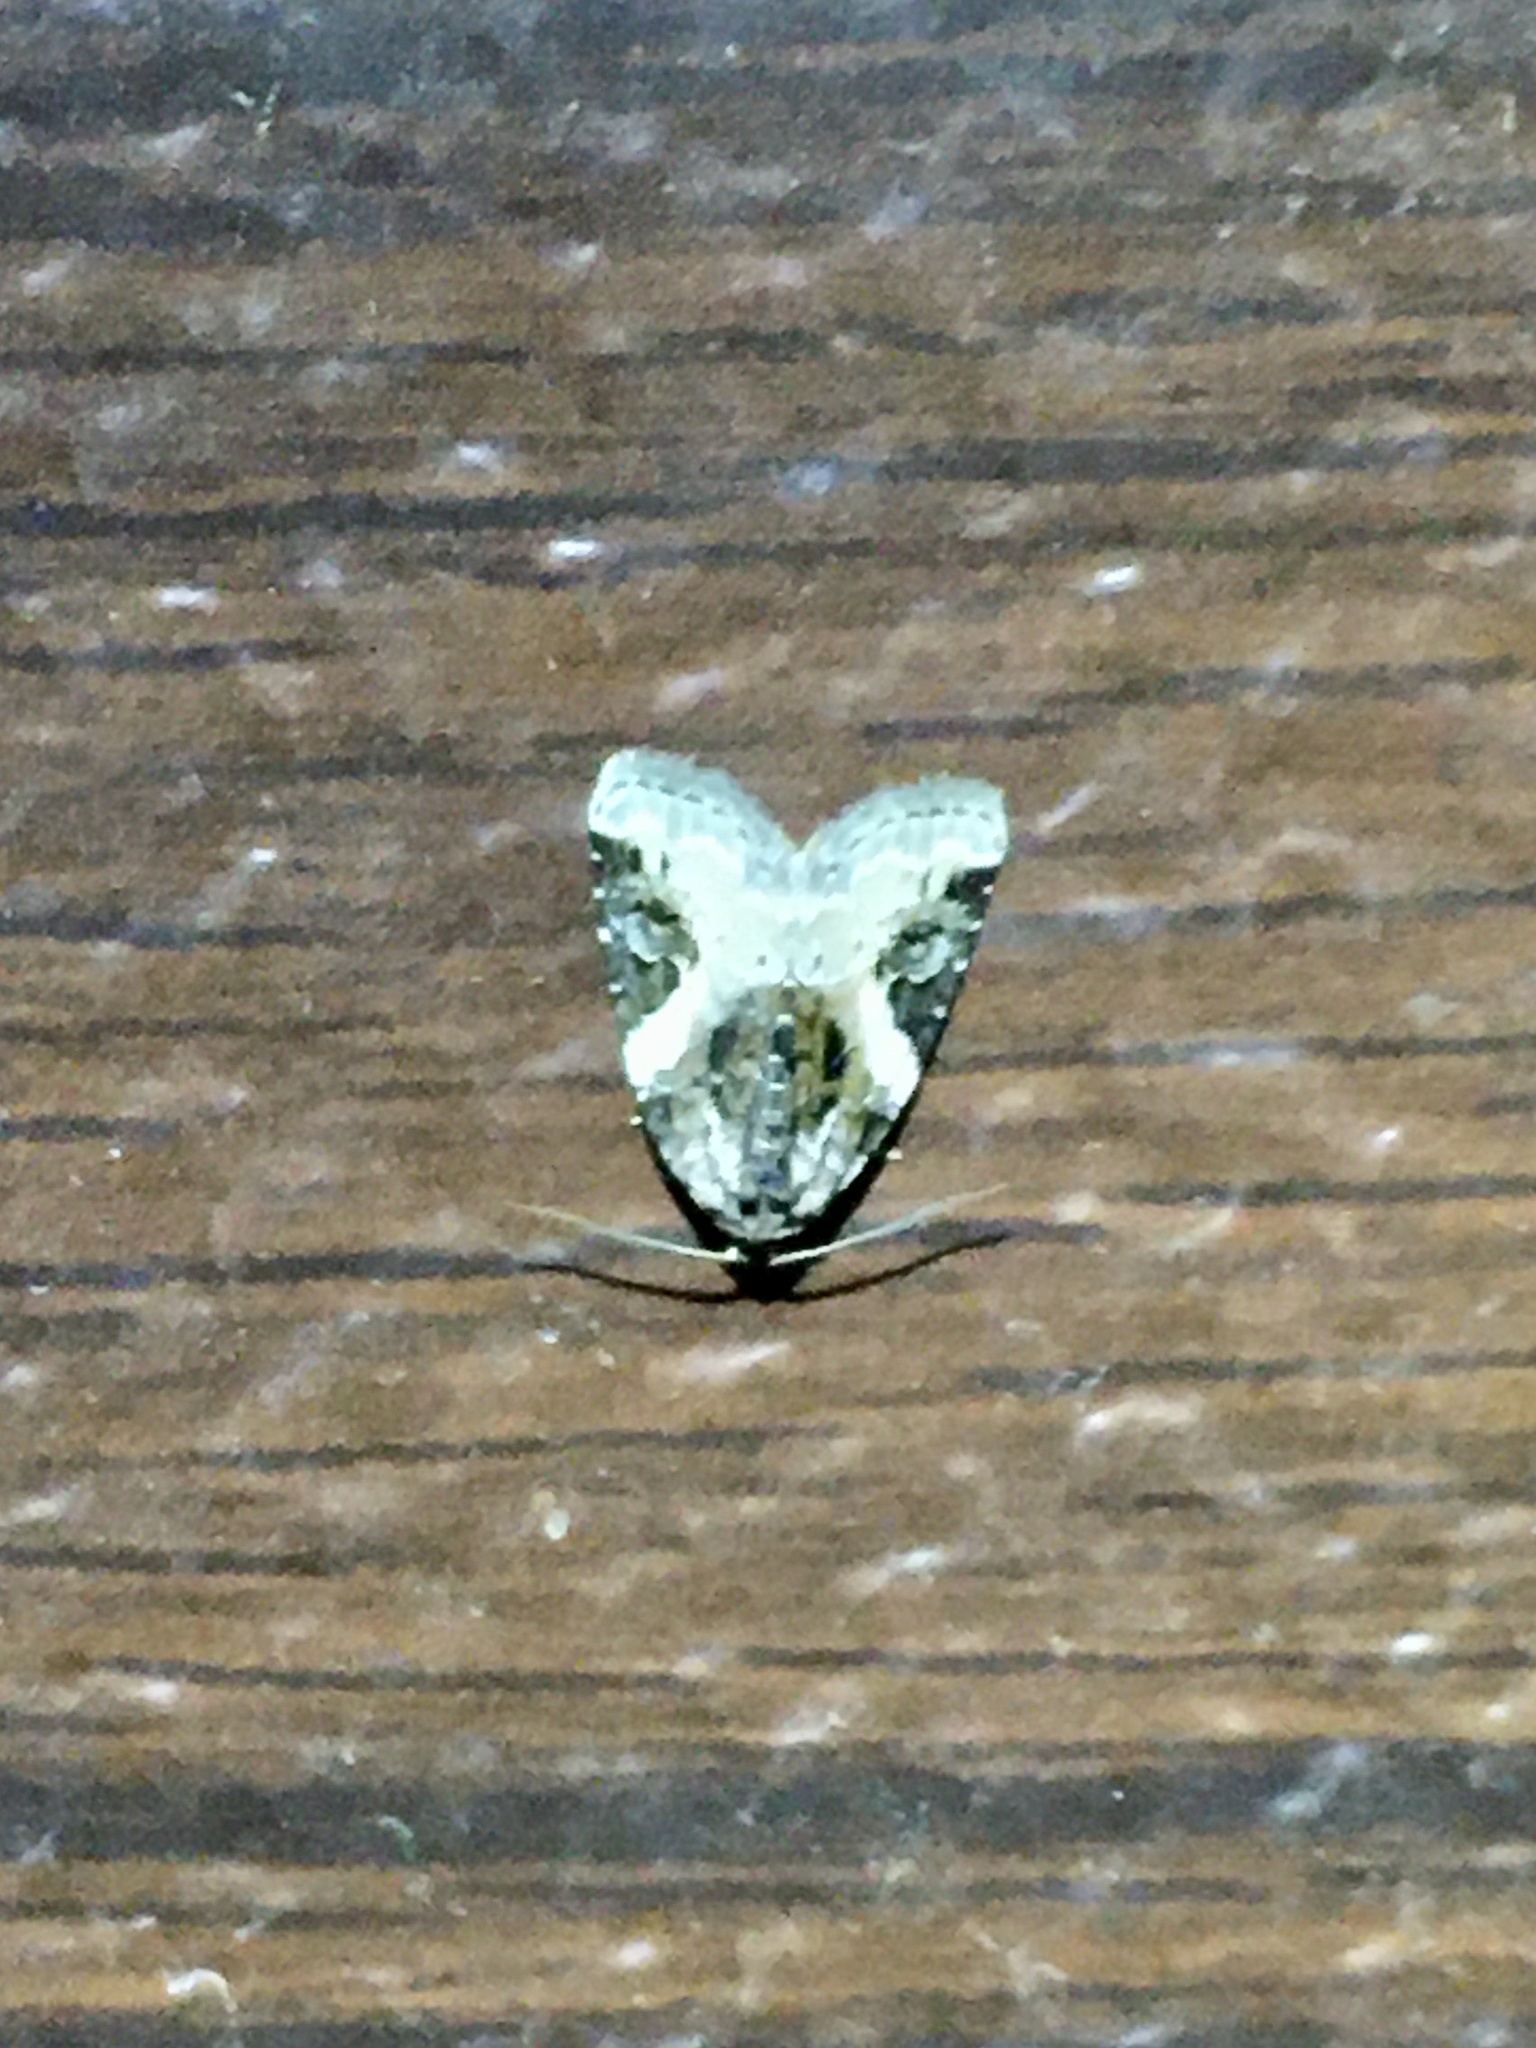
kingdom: Animalia
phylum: Arthropoda
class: Insecta
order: Lepidoptera
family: Noctuidae
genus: Pseudeustrotia
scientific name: Pseudeustrotia carneola
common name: Pink-barred lithacodia moth
